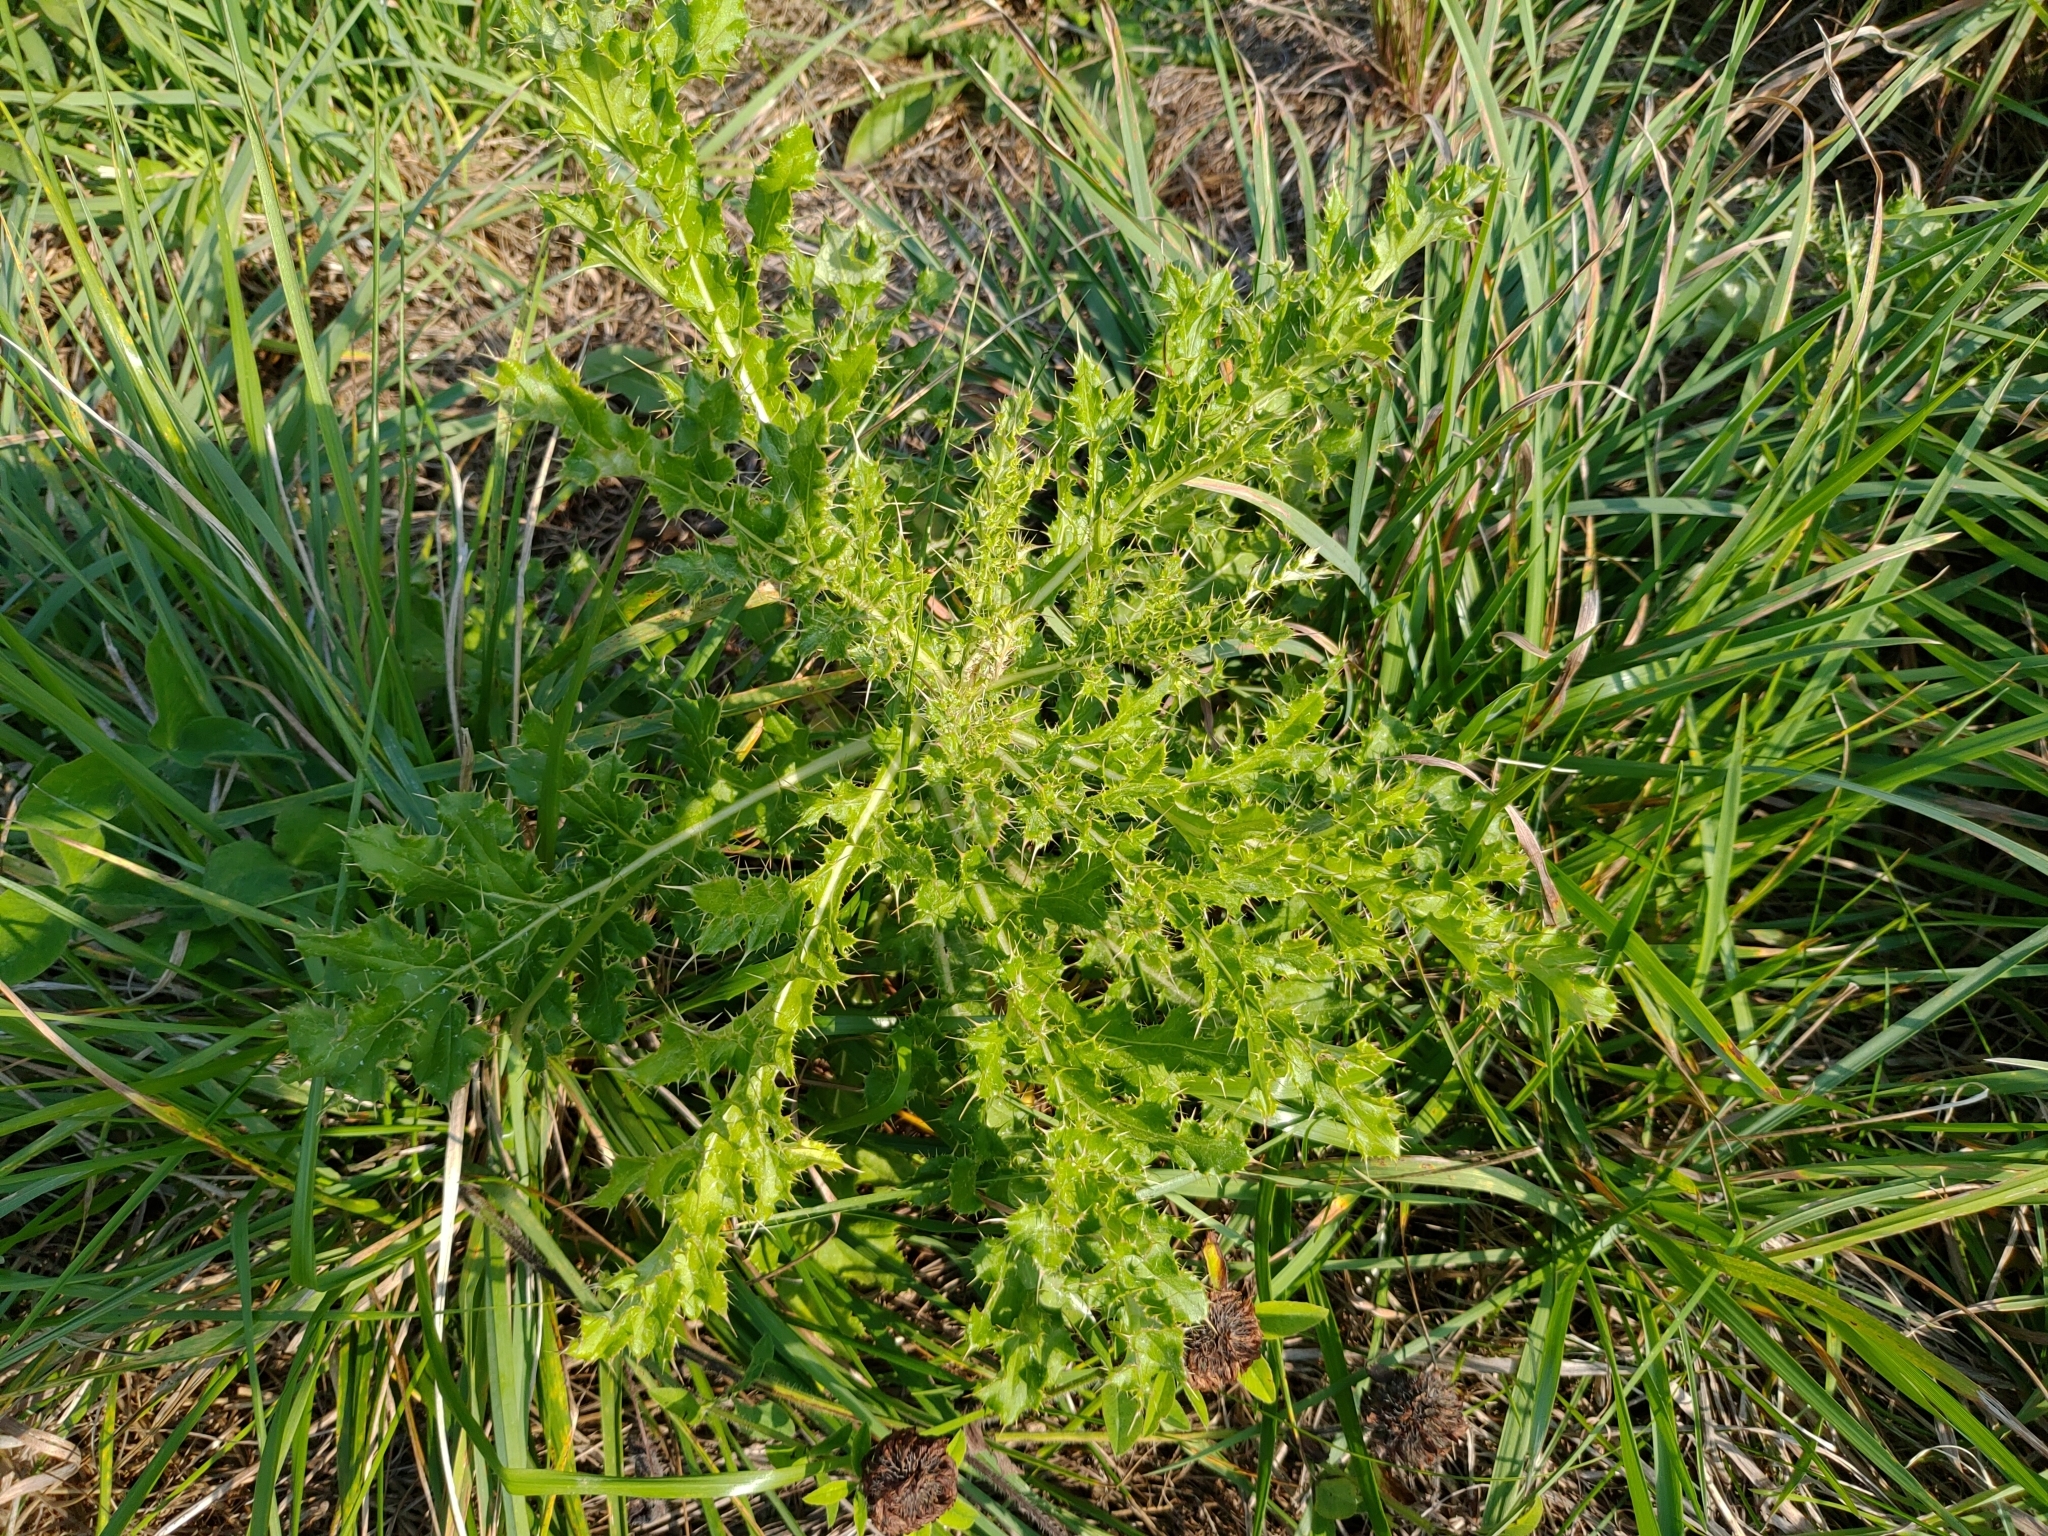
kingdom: Plantae
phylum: Tracheophyta
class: Magnoliopsida
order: Asterales
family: Asteraceae
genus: Cirsium
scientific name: Cirsium arvense
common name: Creeping thistle
